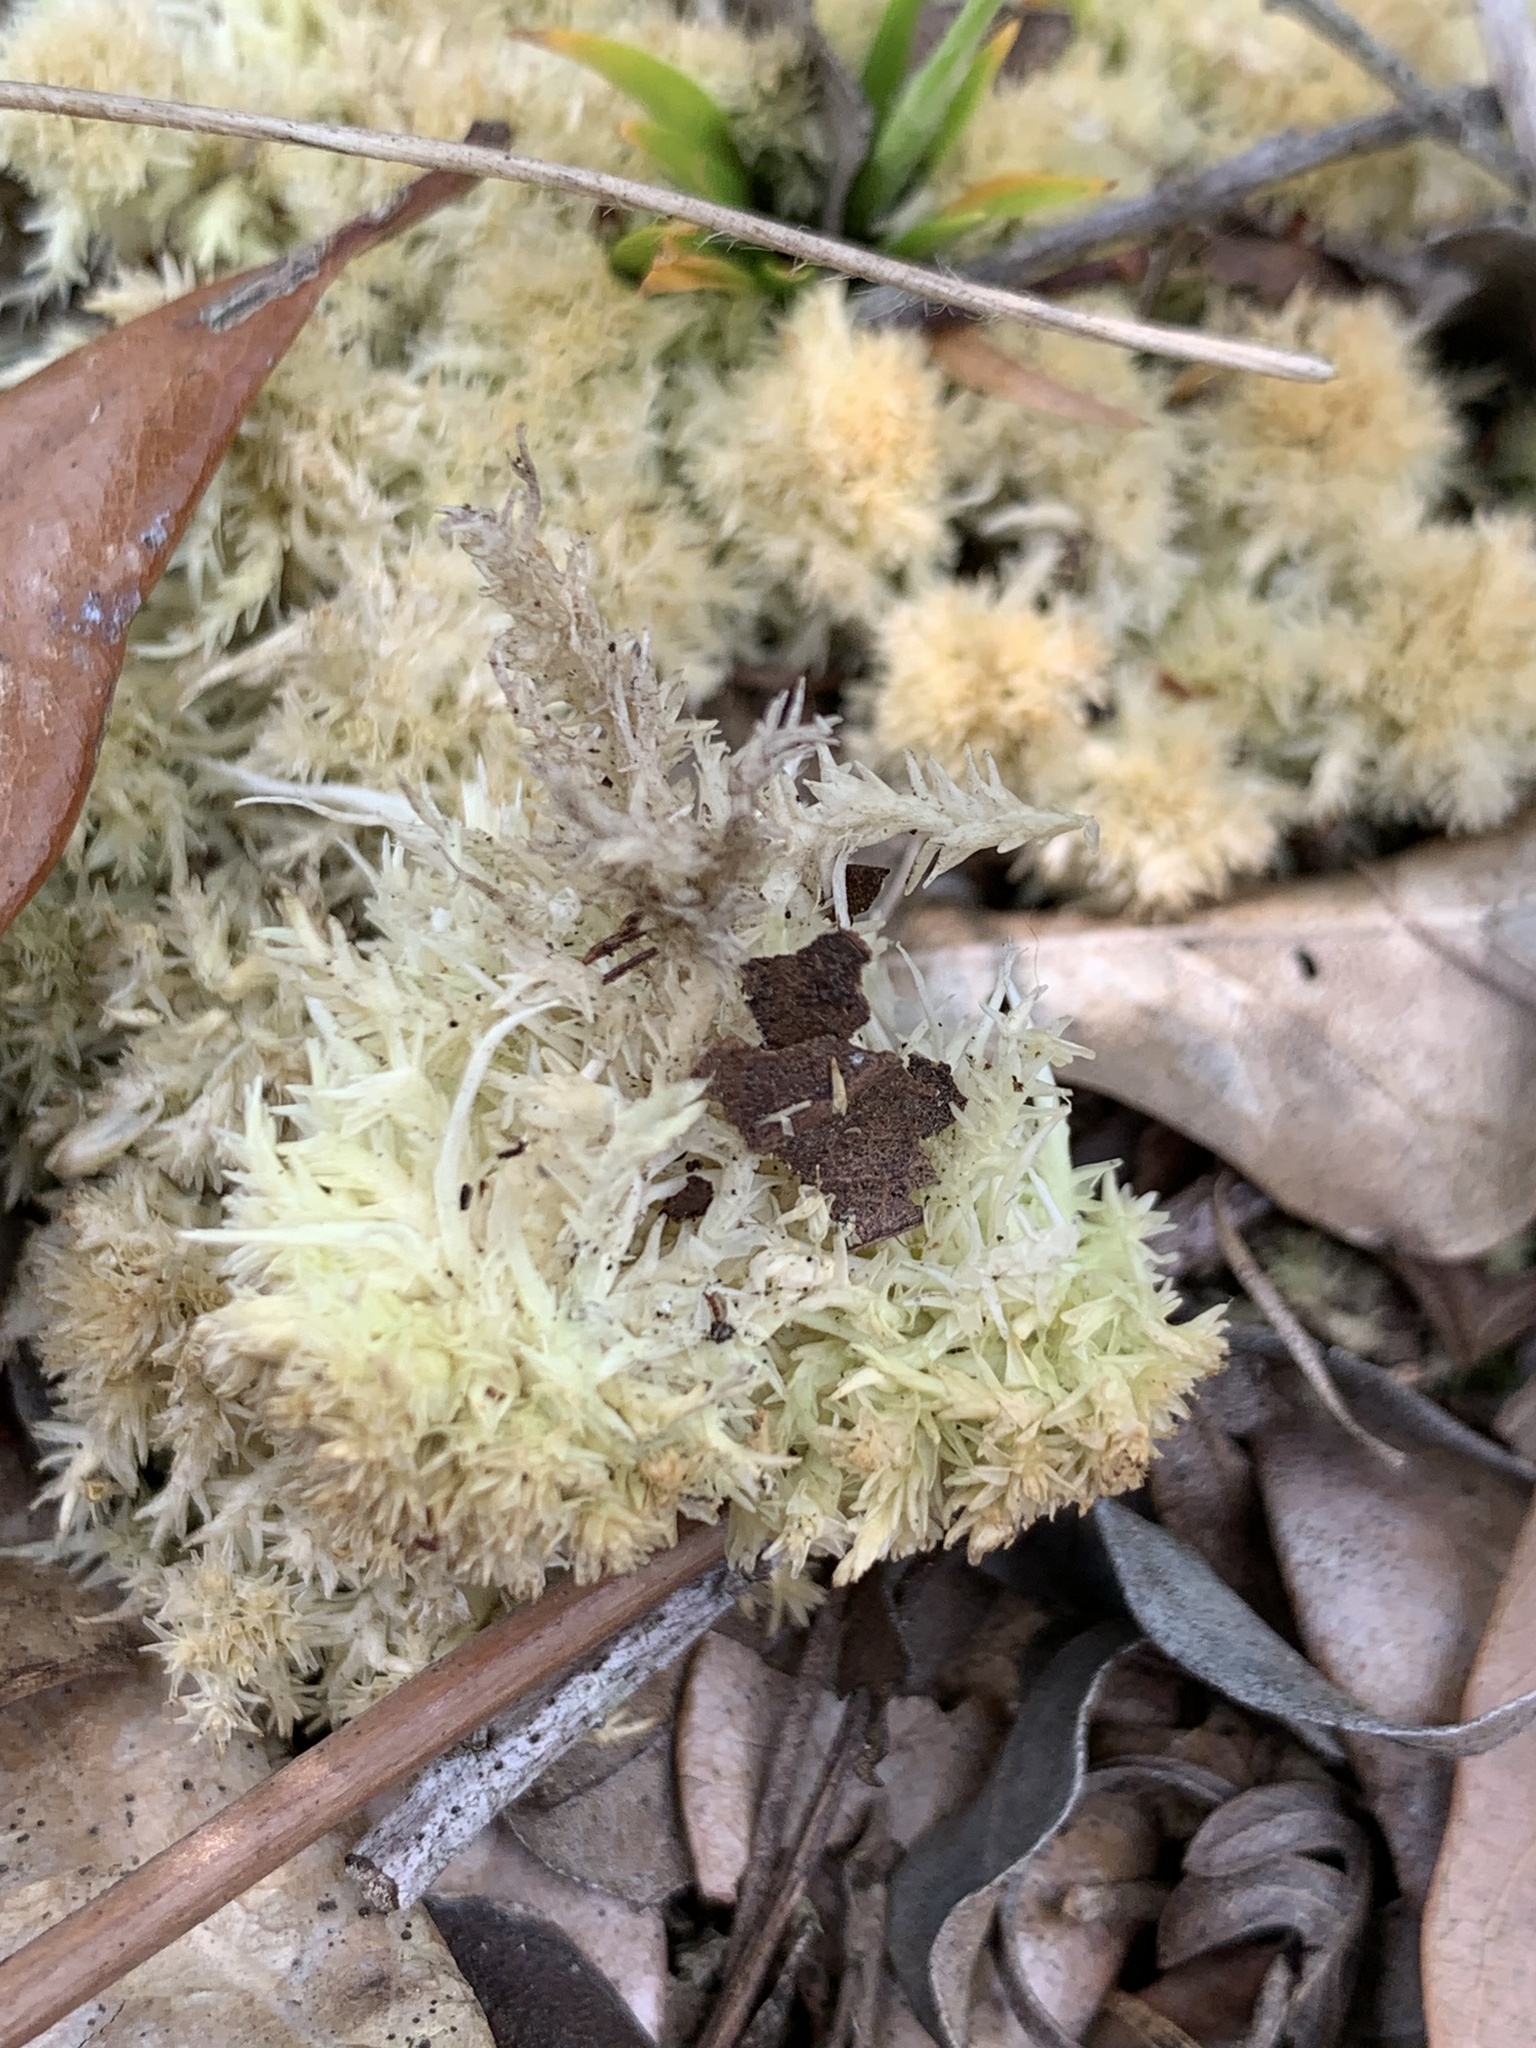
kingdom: Plantae
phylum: Bryophyta
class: Sphagnopsida
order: Sphagnales
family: Sphagnaceae
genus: Sphagnum
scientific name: Sphagnum strictum
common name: Pale bog-moss
